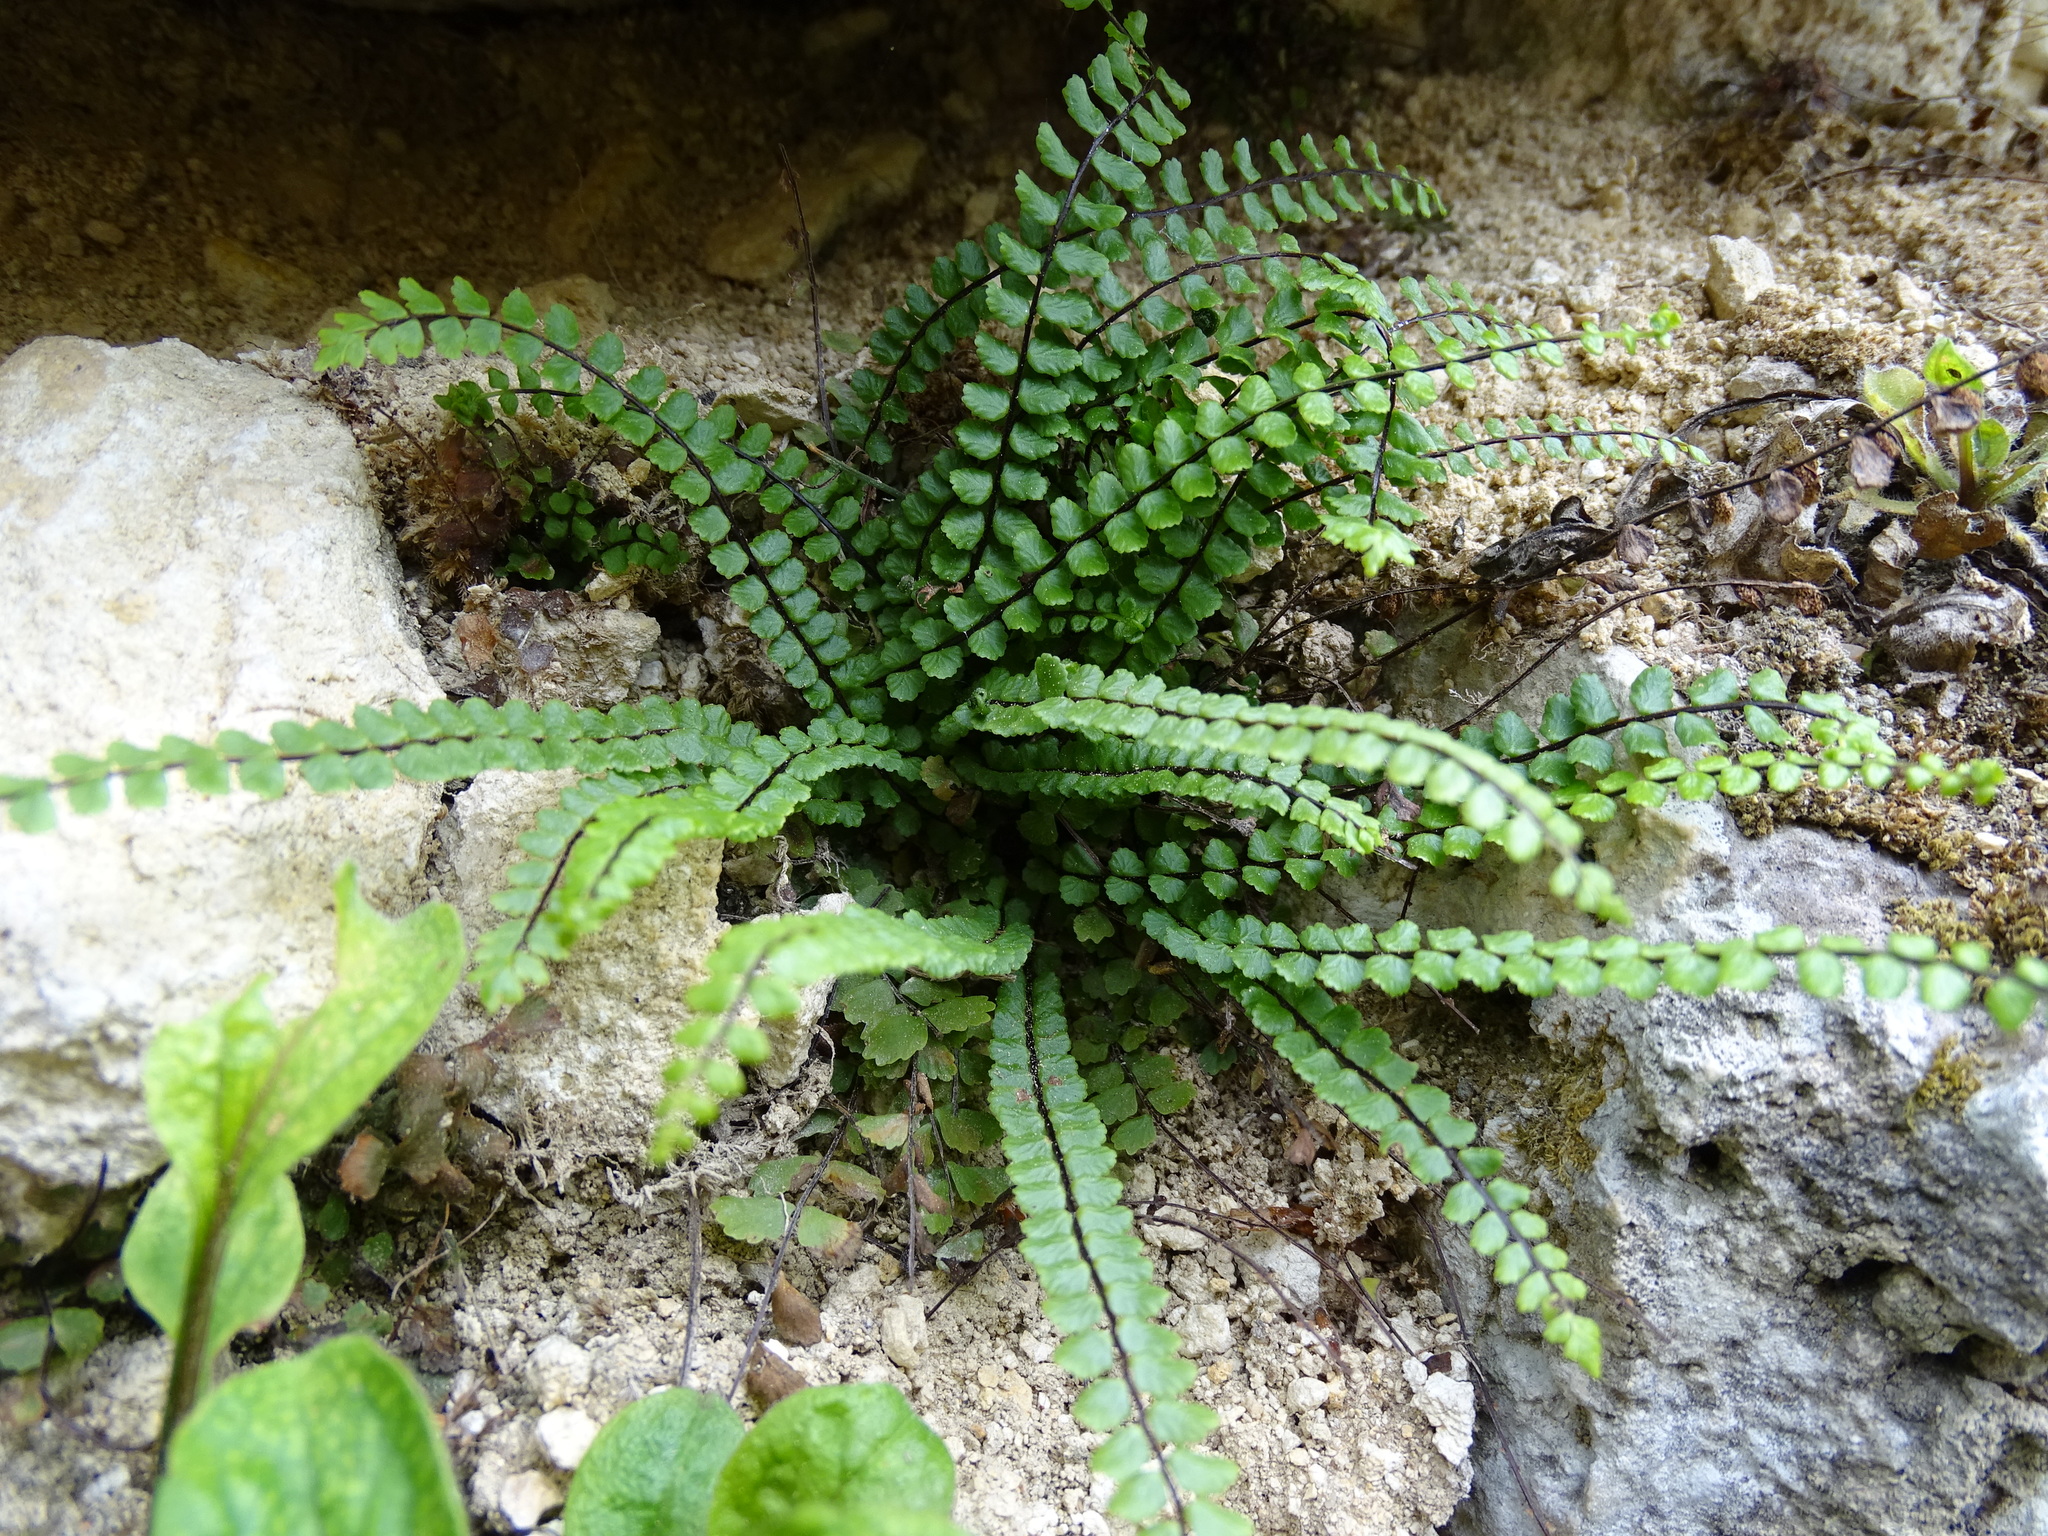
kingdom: Plantae
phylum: Tracheophyta
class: Polypodiopsida
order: Polypodiales
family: Aspleniaceae
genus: Asplenium
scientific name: Asplenium trichomanes
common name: Maidenhair spleenwort
